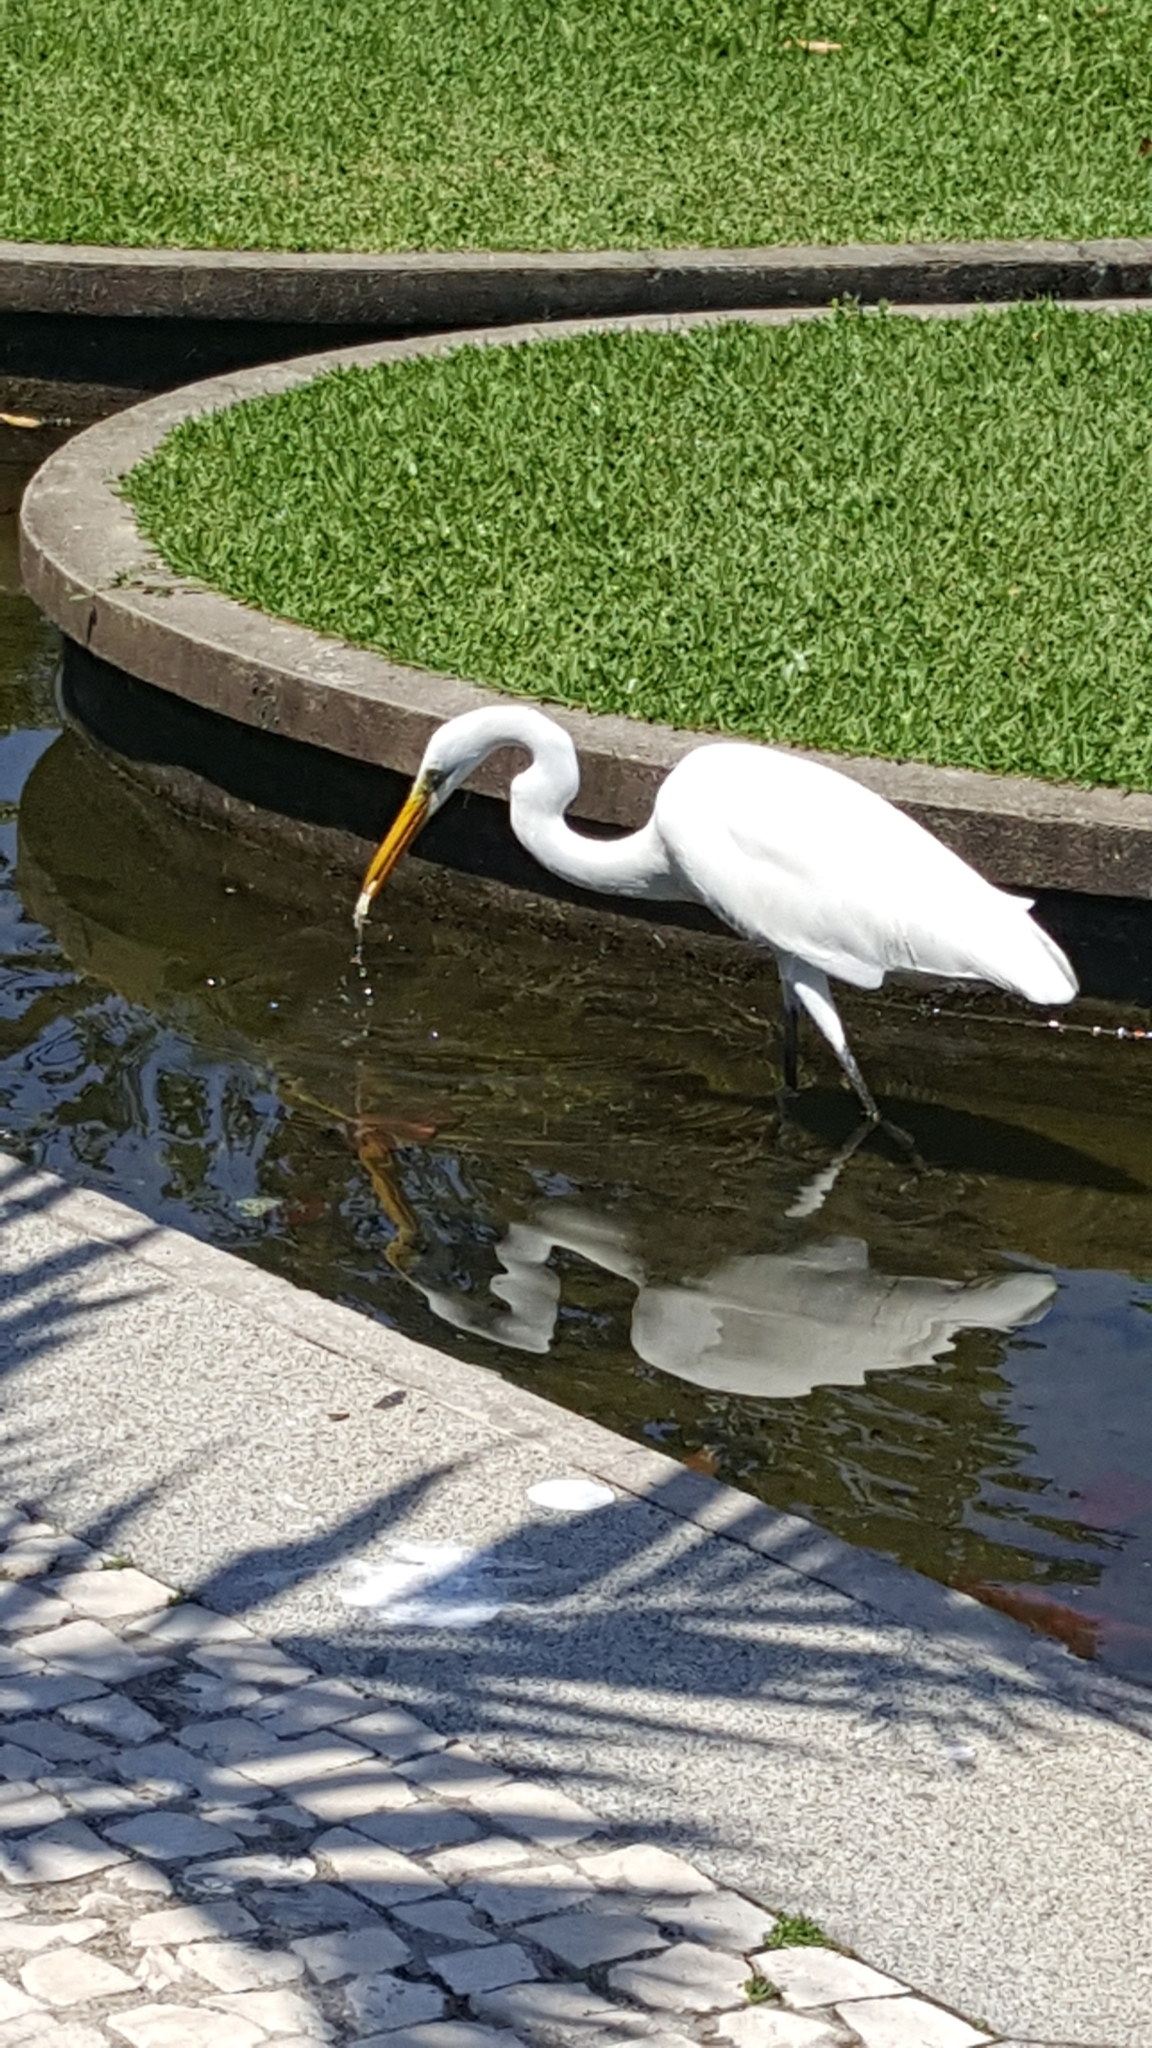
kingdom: Animalia
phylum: Chordata
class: Aves
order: Pelecaniformes
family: Ardeidae
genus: Ardea
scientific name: Ardea alba
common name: Great egret
